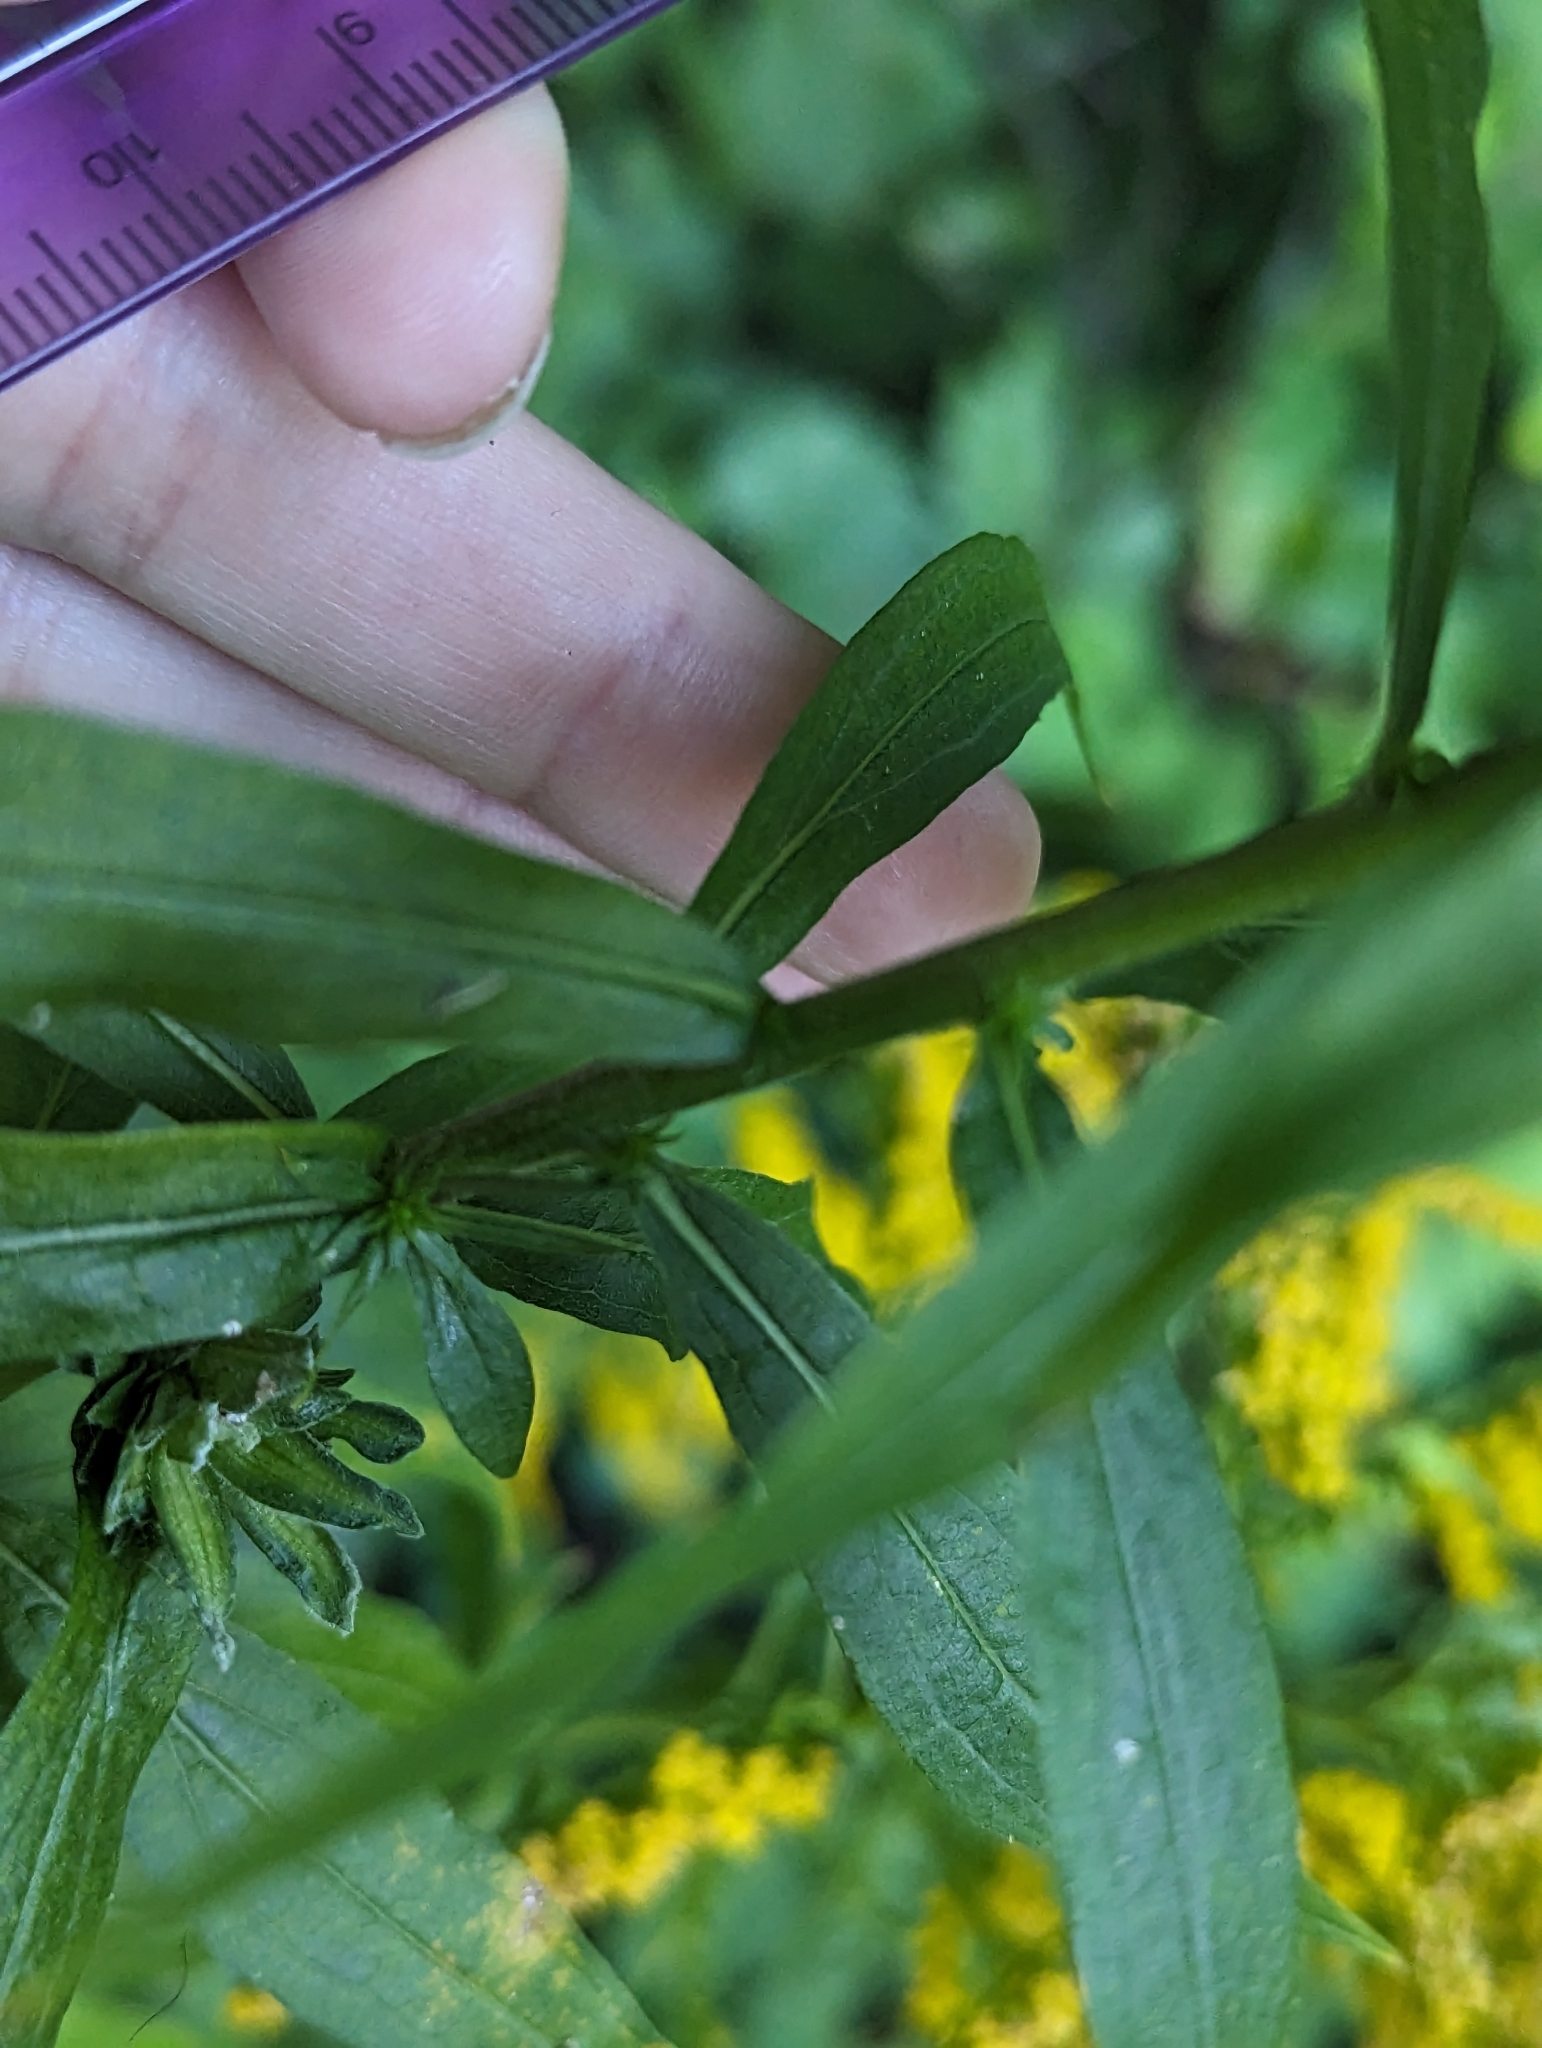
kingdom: Plantae
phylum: Tracheophyta
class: Magnoliopsida
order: Asterales
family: Asteraceae
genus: Solidago
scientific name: Solidago altissima
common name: Late goldenrod
